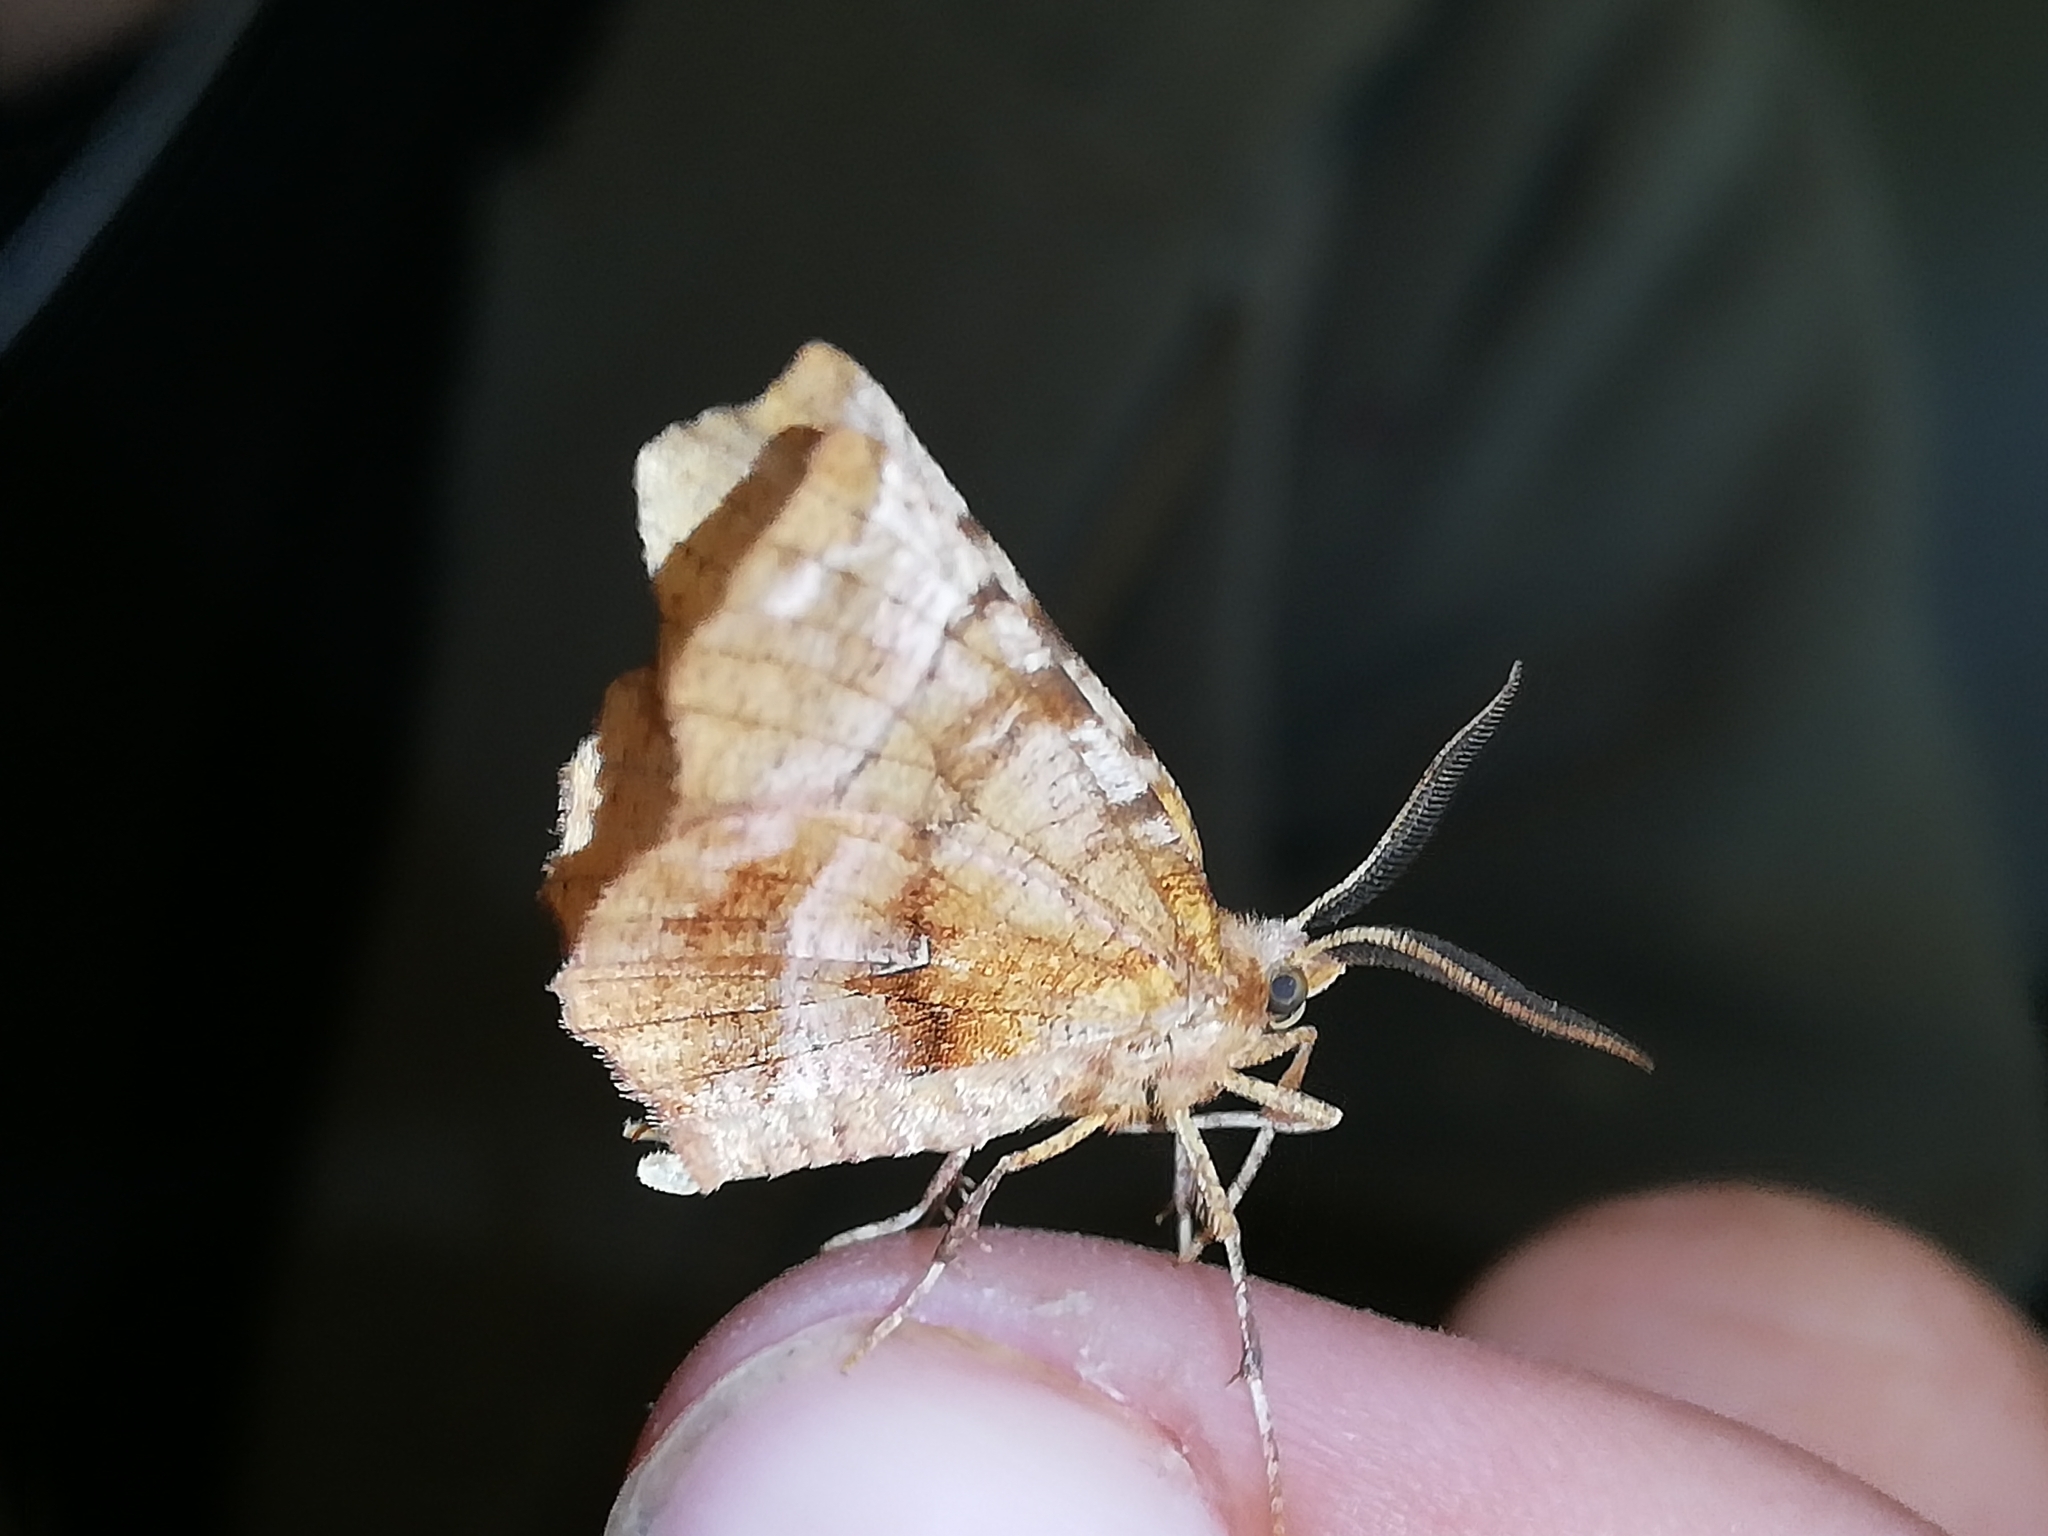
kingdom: Animalia
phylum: Arthropoda
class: Insecta
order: Lepidoptera
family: Geometridae
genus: Selenia
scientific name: Selenia dentaria
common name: Early thorn
